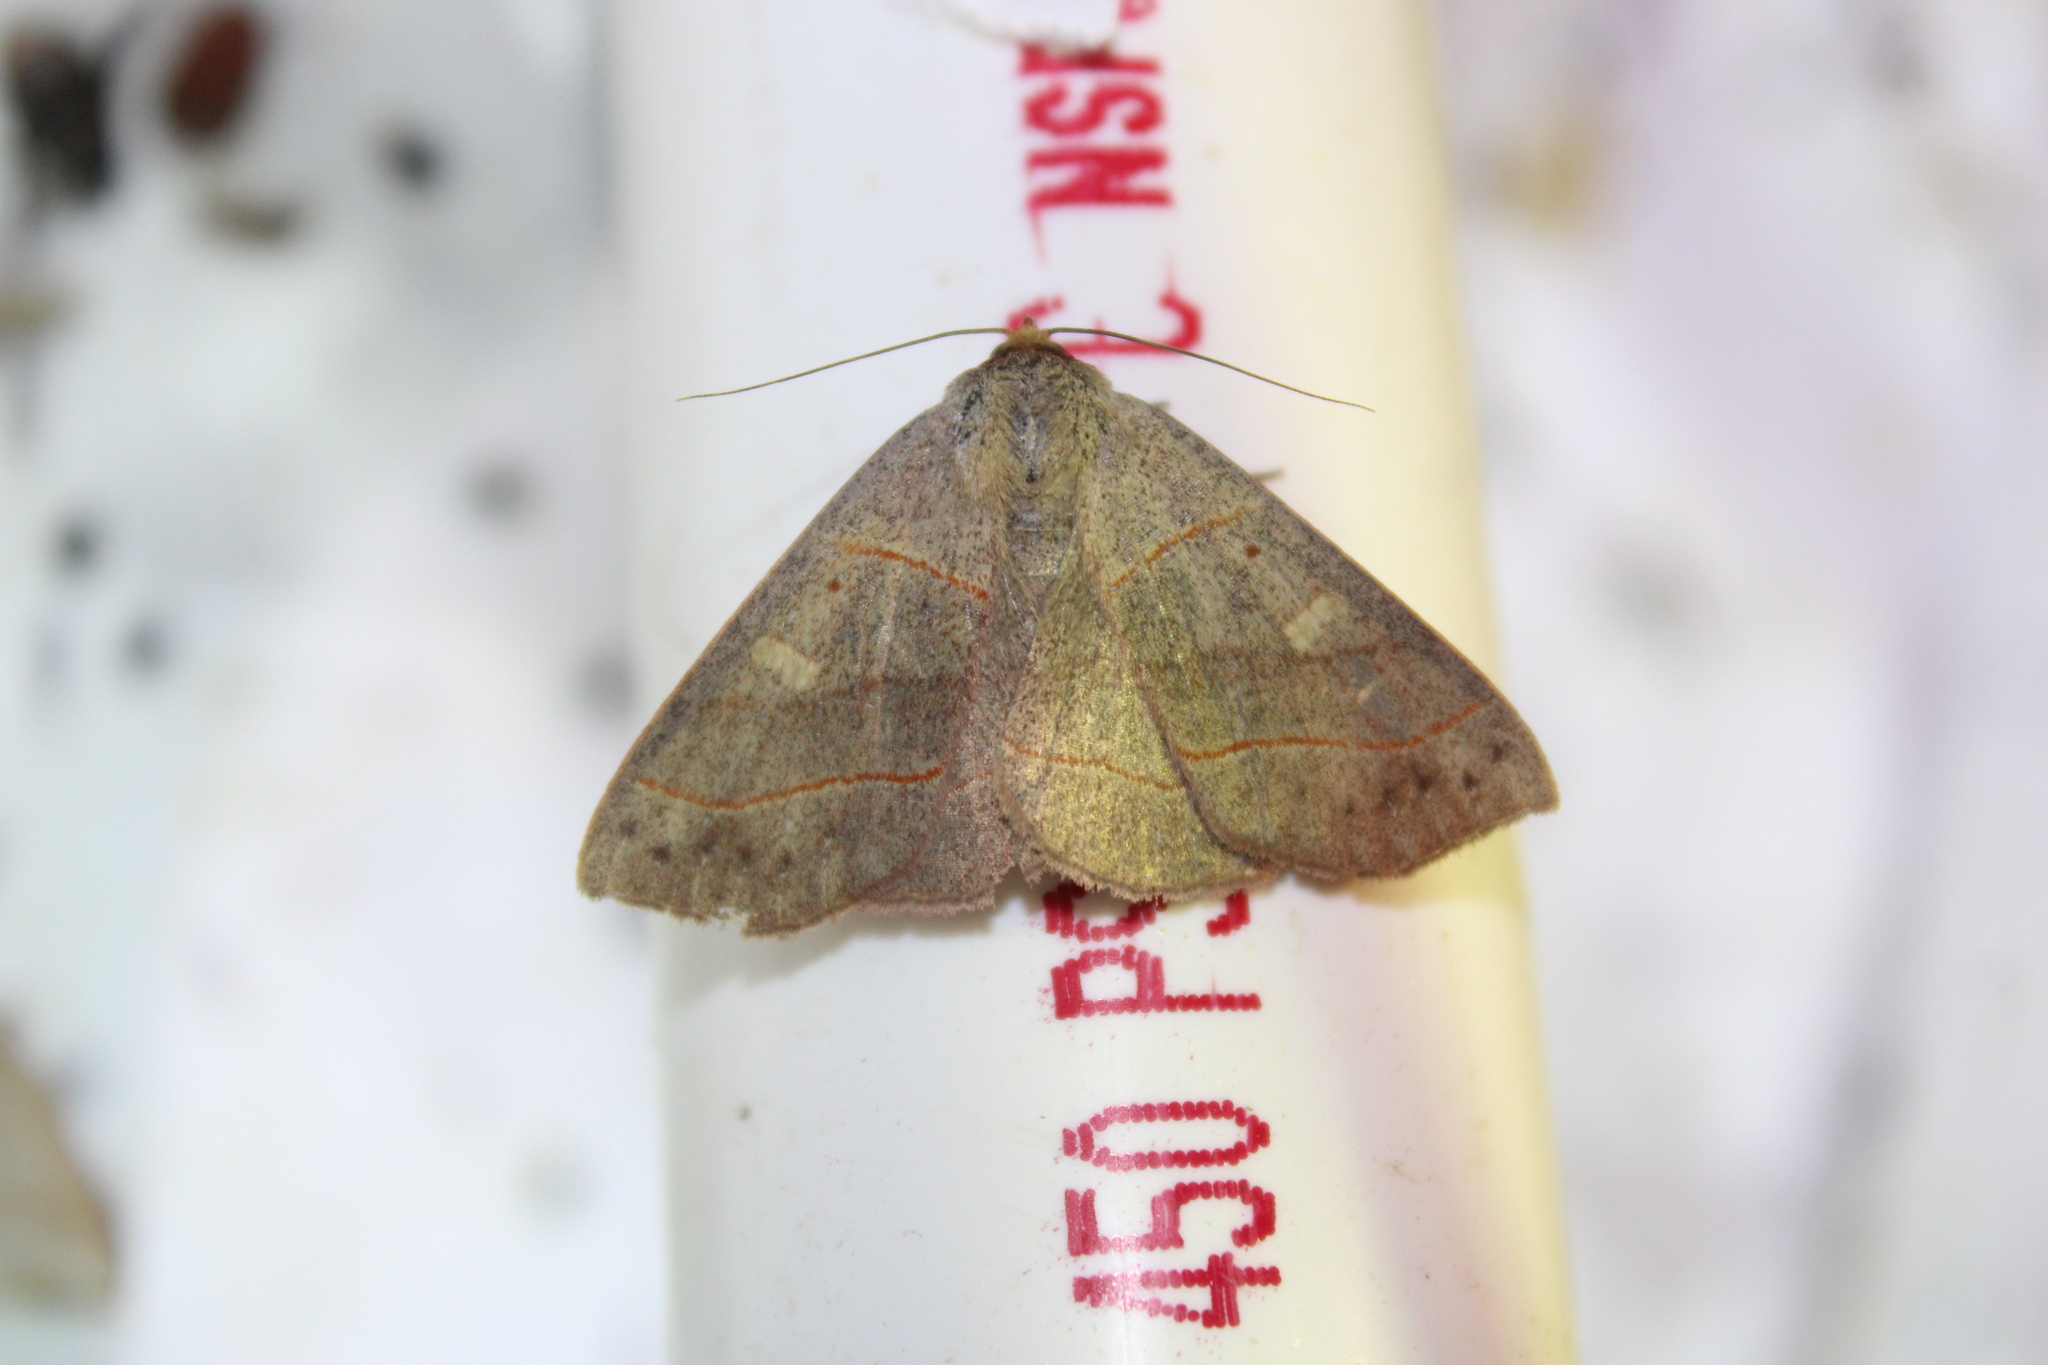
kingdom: Animalia
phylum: Arthropoda
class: Insecta
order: Lepidoptera
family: Erebidae
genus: Panopoda
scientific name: Panopoda rufimargo
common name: Red-lined panopoda moth
